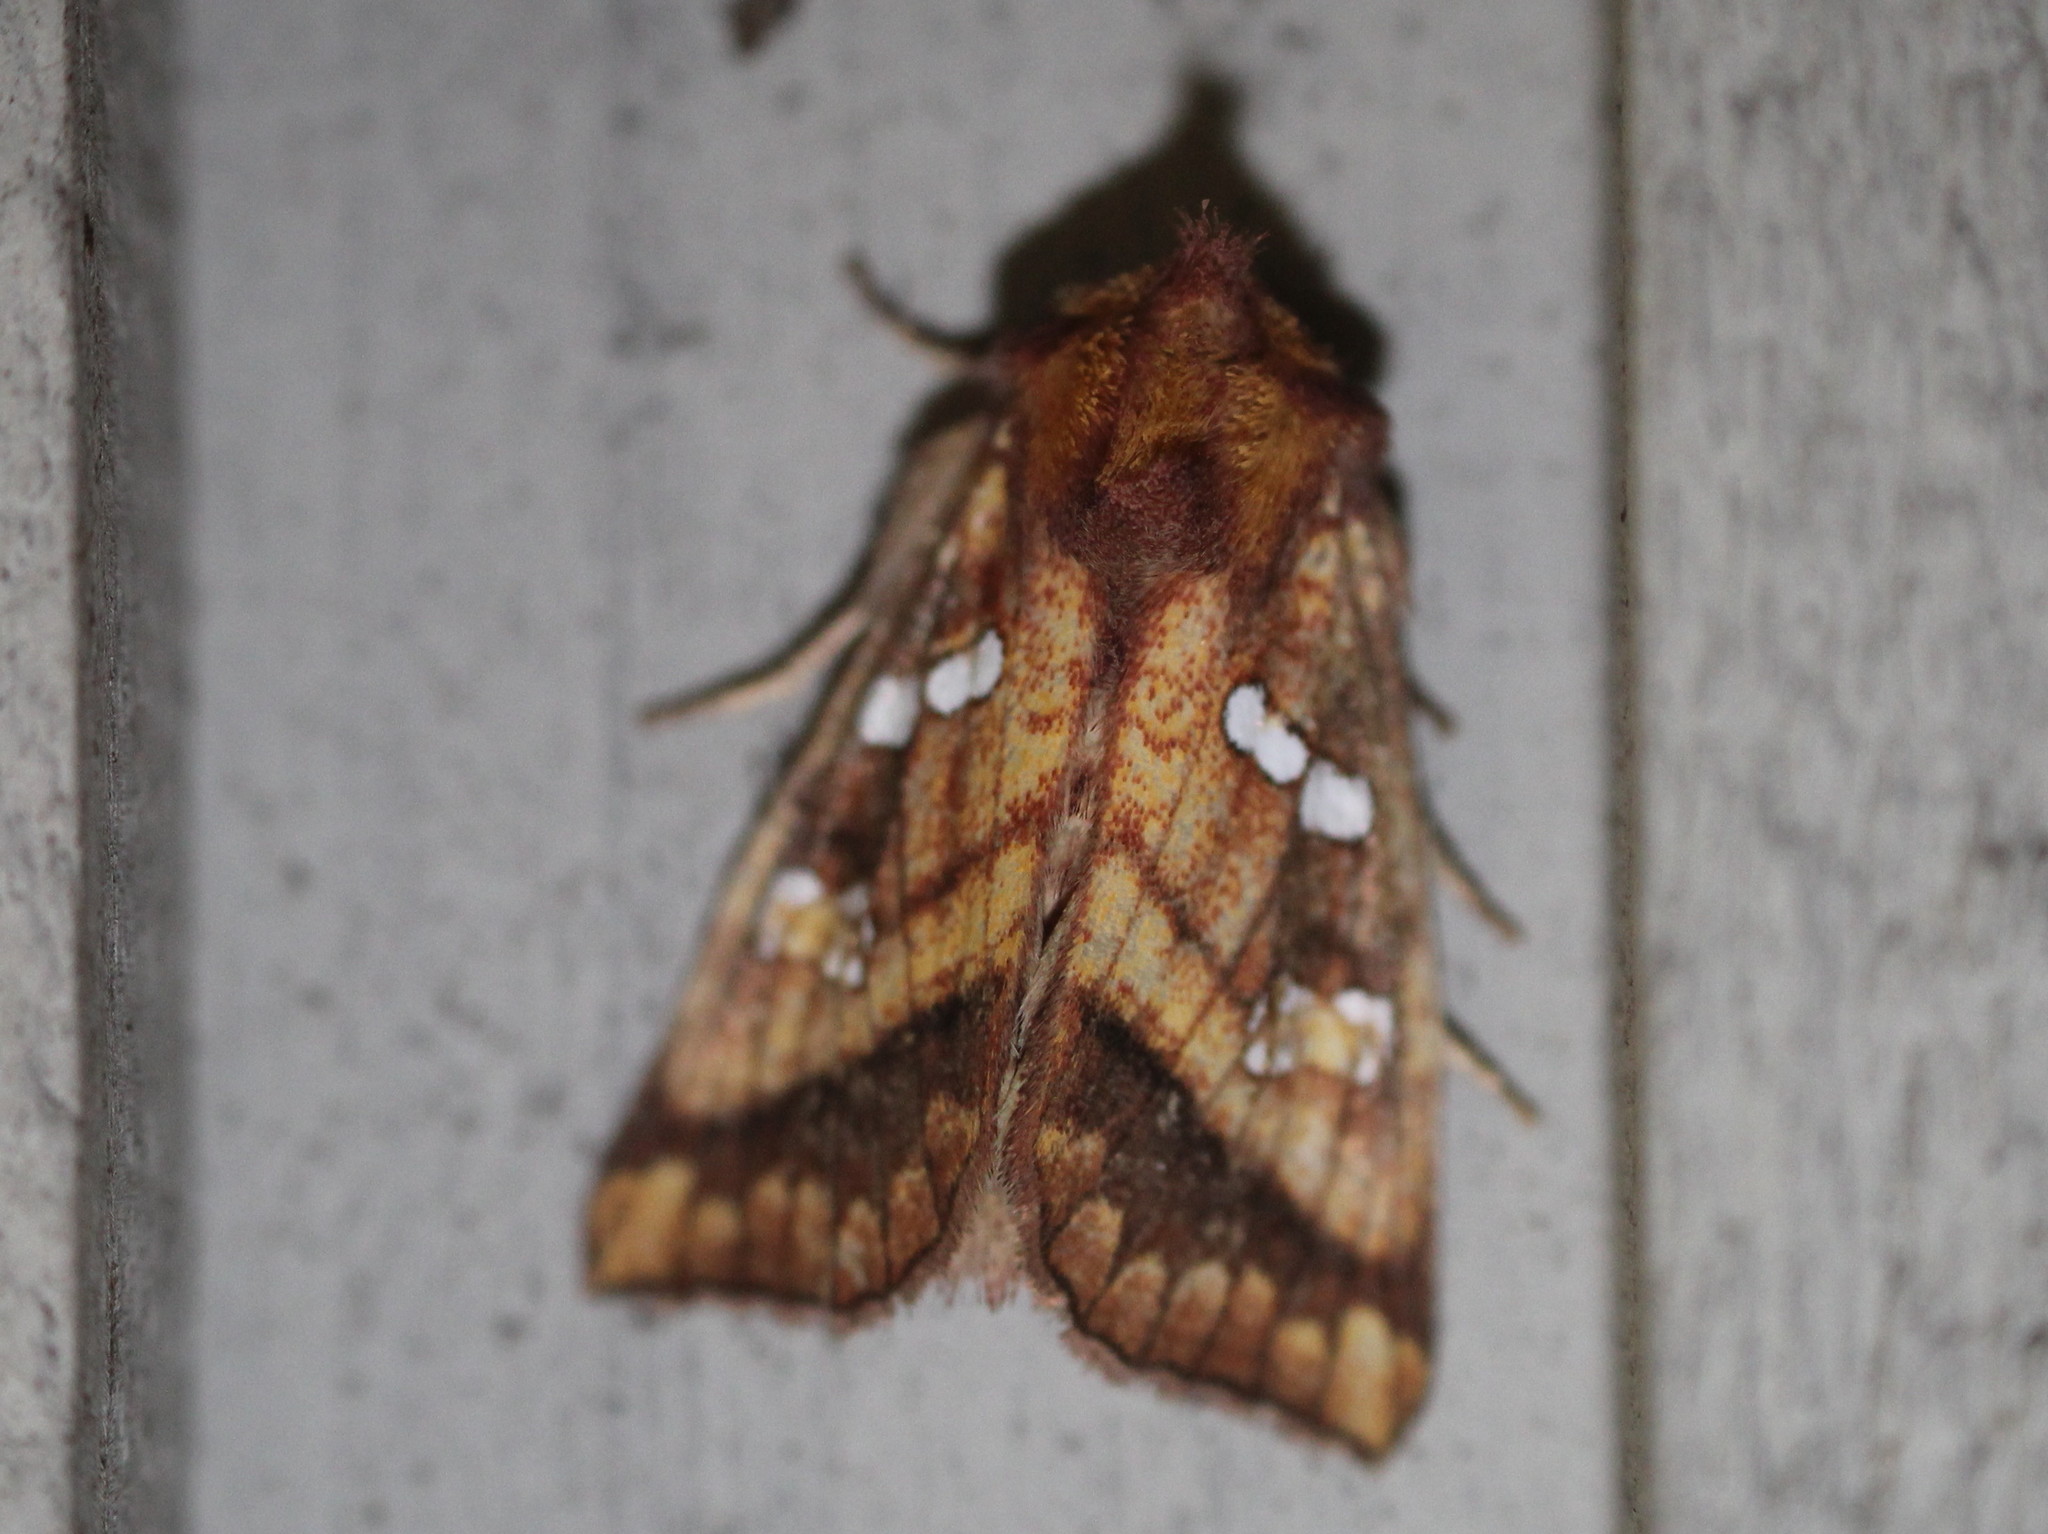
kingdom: Animalia
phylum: Arthropoda
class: Insecta
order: Lepidoptera
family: Noctuidae
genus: Papaipema
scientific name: Papaipema pterisii
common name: Bracken borer moth
